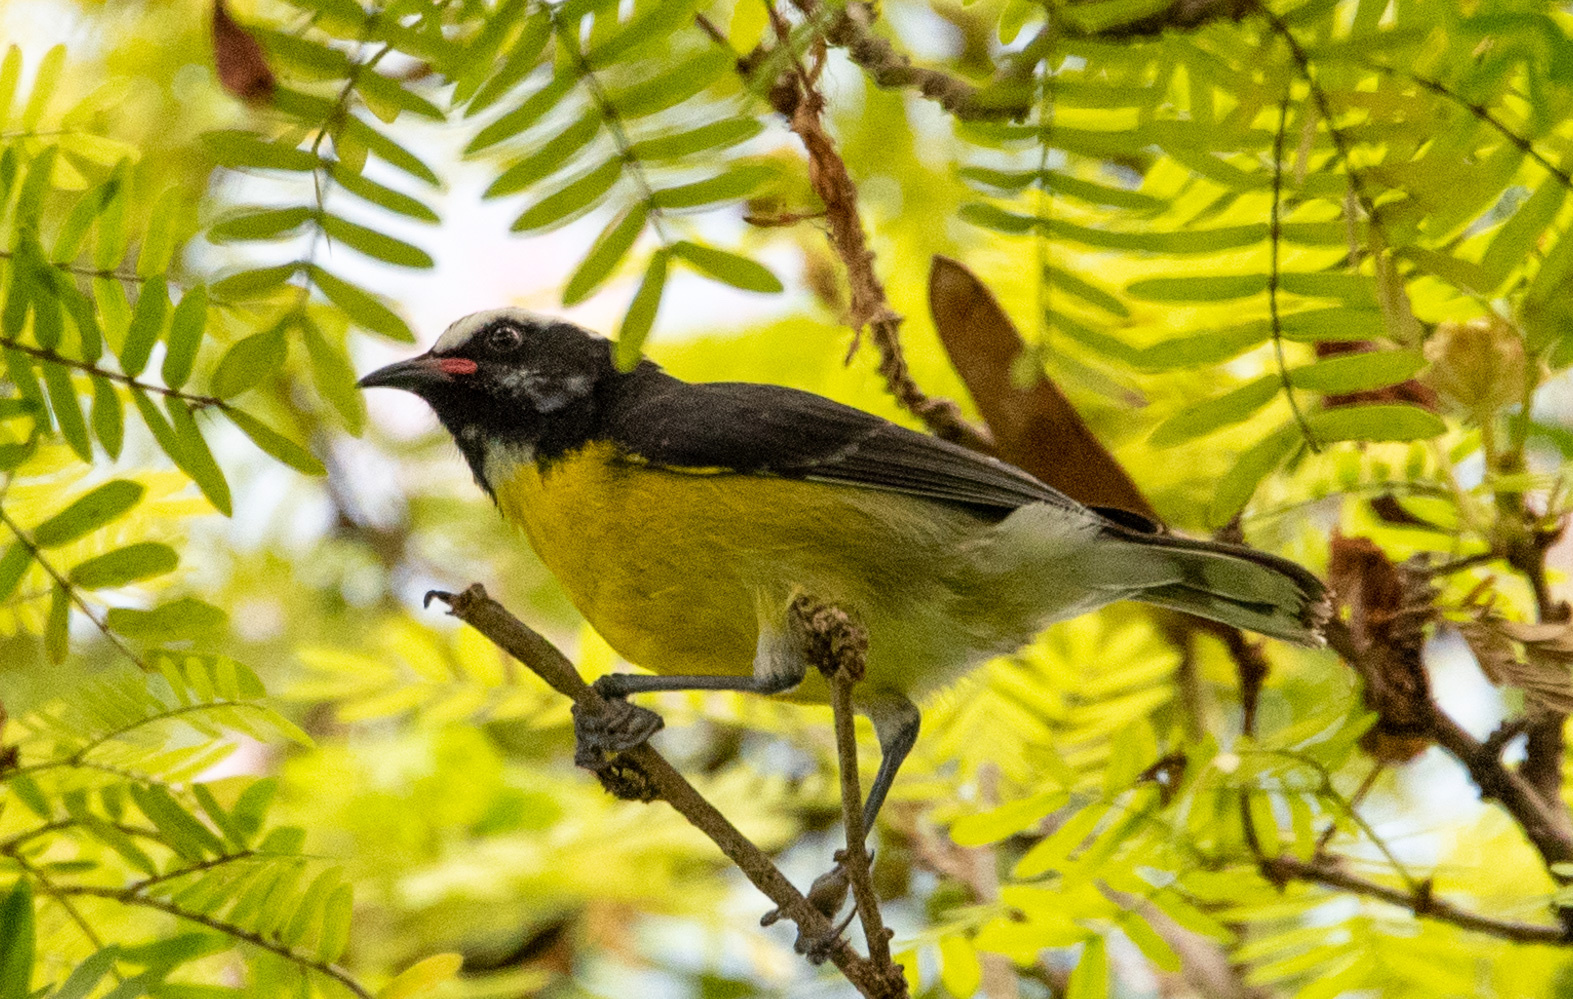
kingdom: Animalia
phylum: Chordata
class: Aves
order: Passeriformes
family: Thraupidae
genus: Coereba
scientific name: Coereba flaveola
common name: Bananaquit
